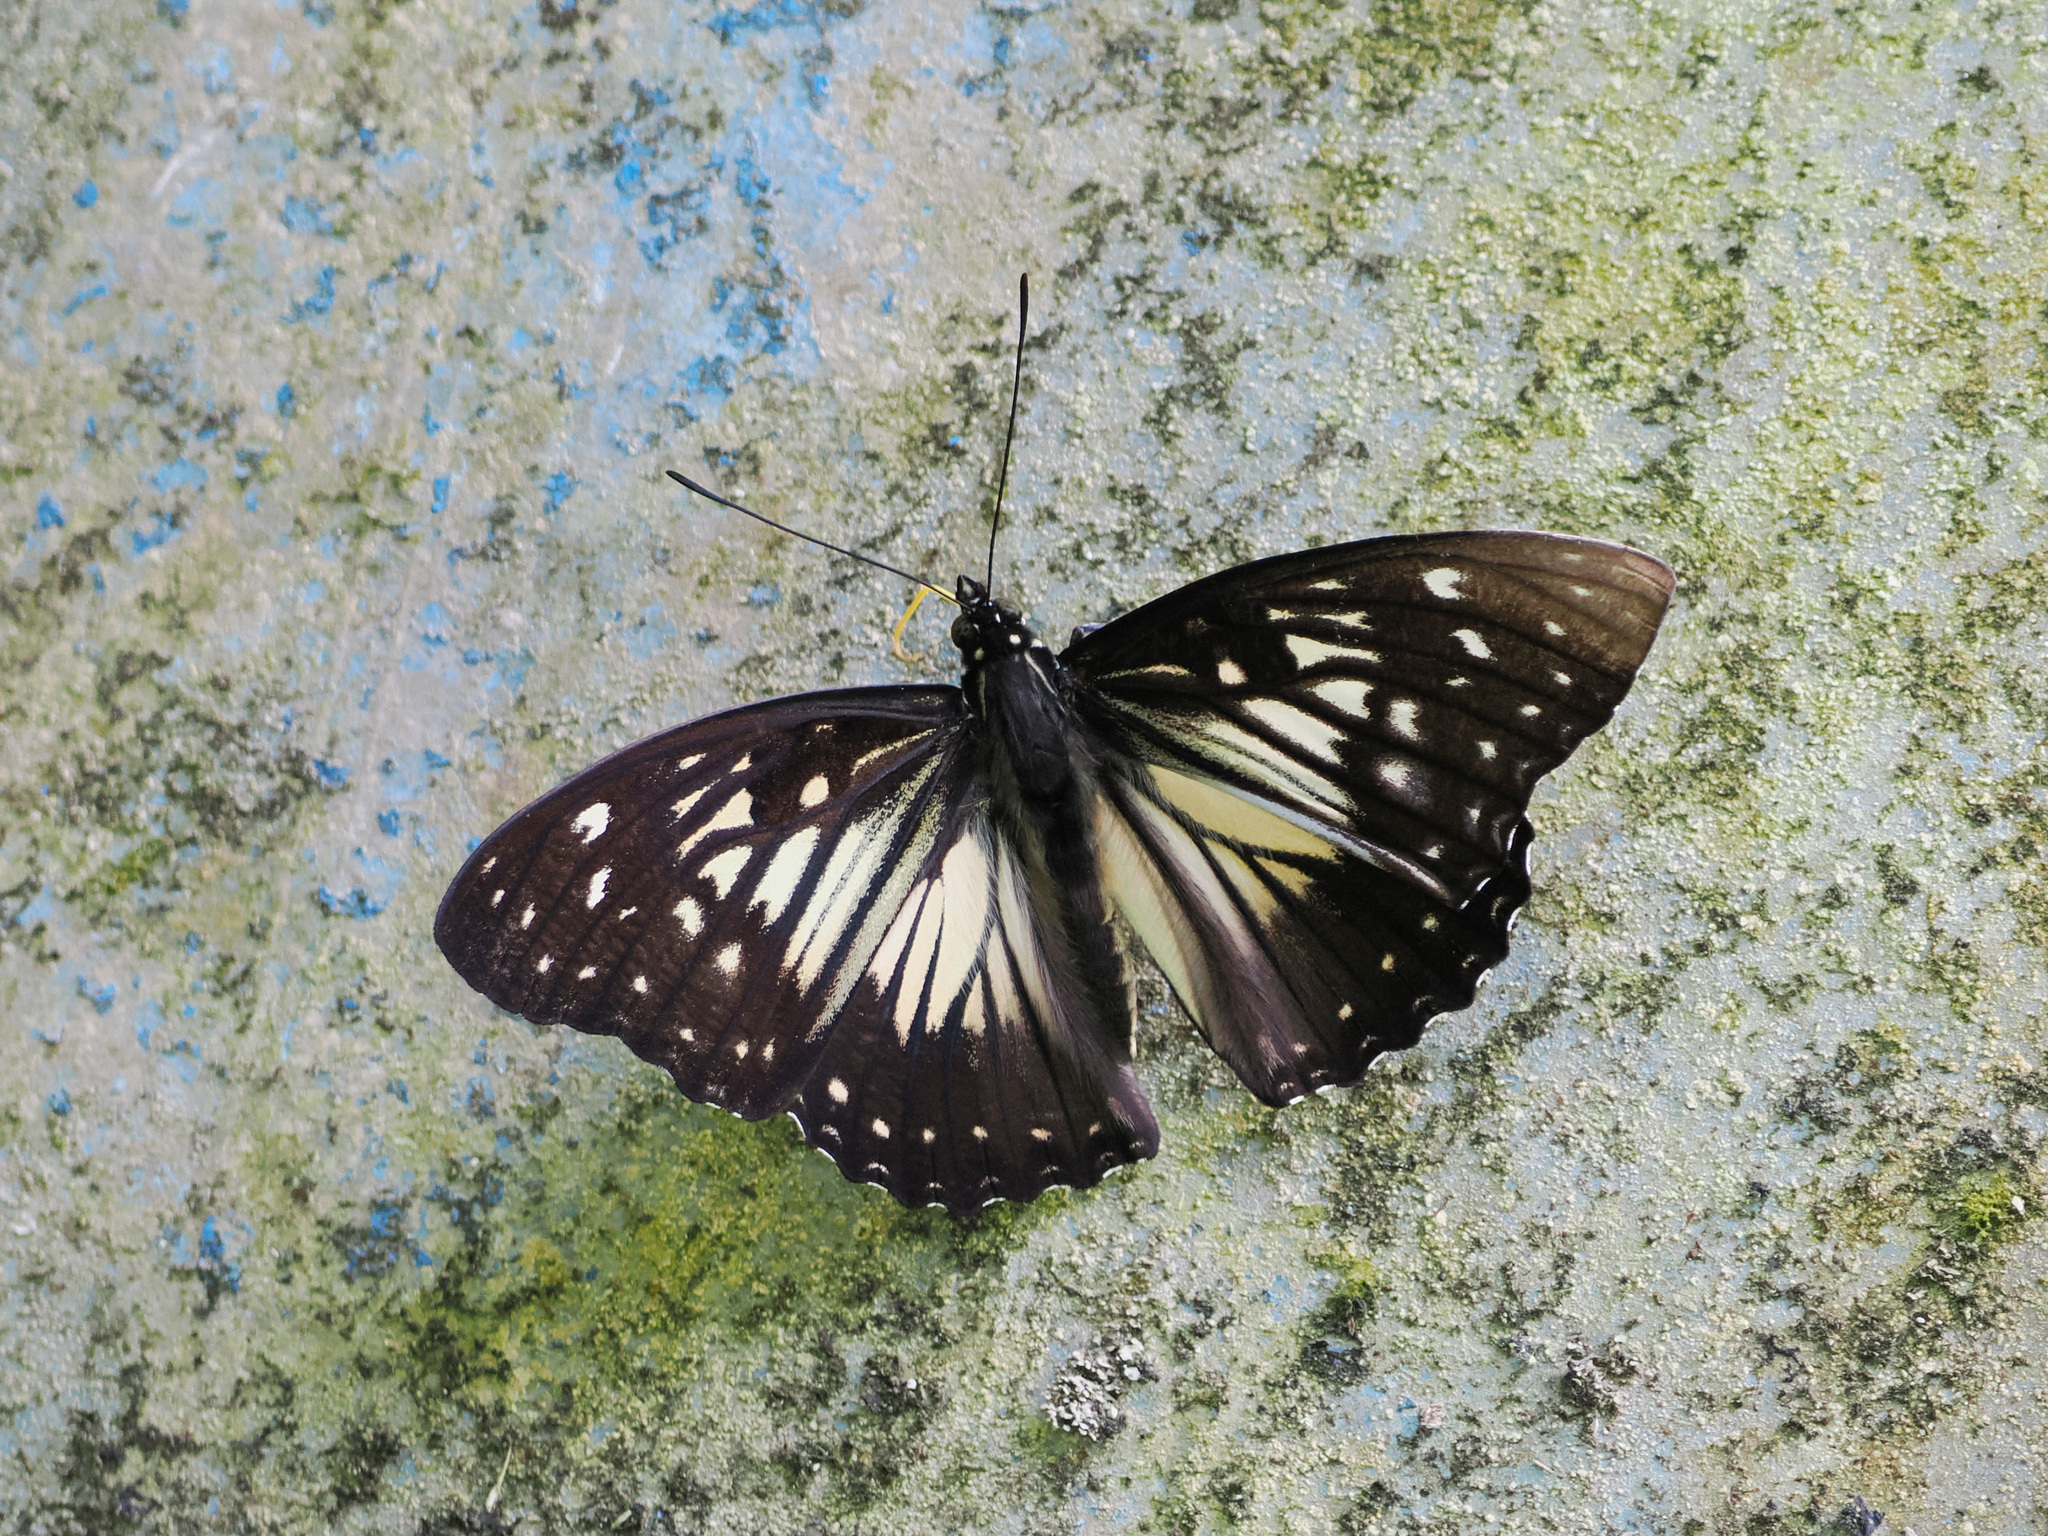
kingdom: Animalia
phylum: Arthropoda
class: Insecta
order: Lepidoptera
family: Nymphalidae
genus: Hestinalis
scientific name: Hestinalis divona
